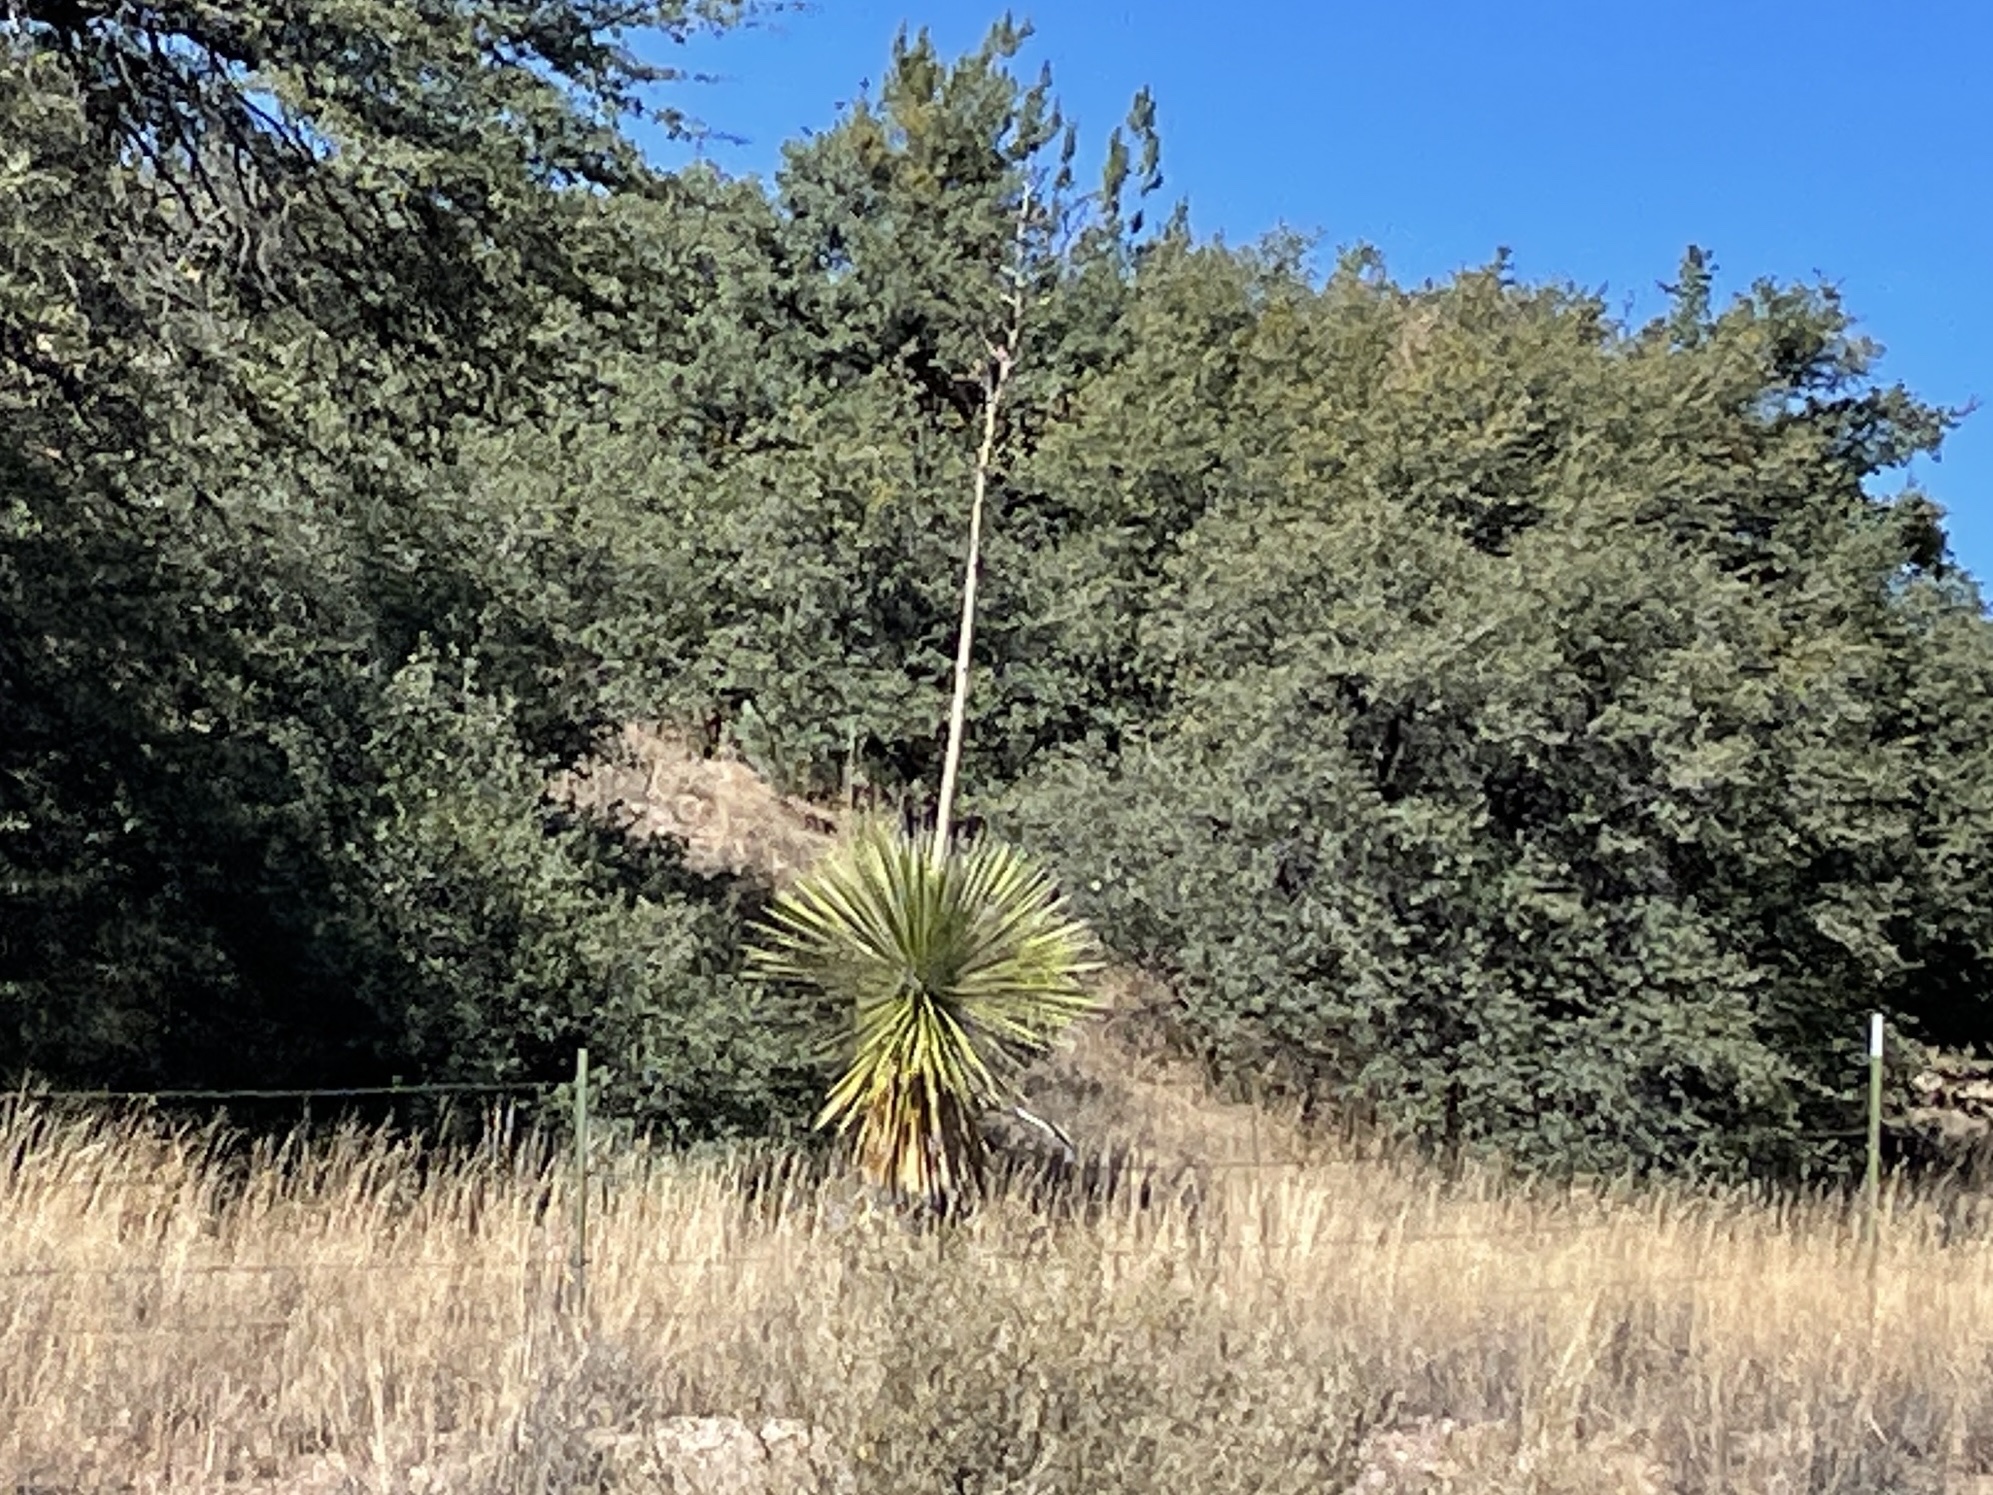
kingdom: Plantae
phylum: Tracheophyta
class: Liliopsida
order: Asparagales
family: Asparagaceae
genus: Yucca
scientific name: Yucca elata
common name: Palmella
